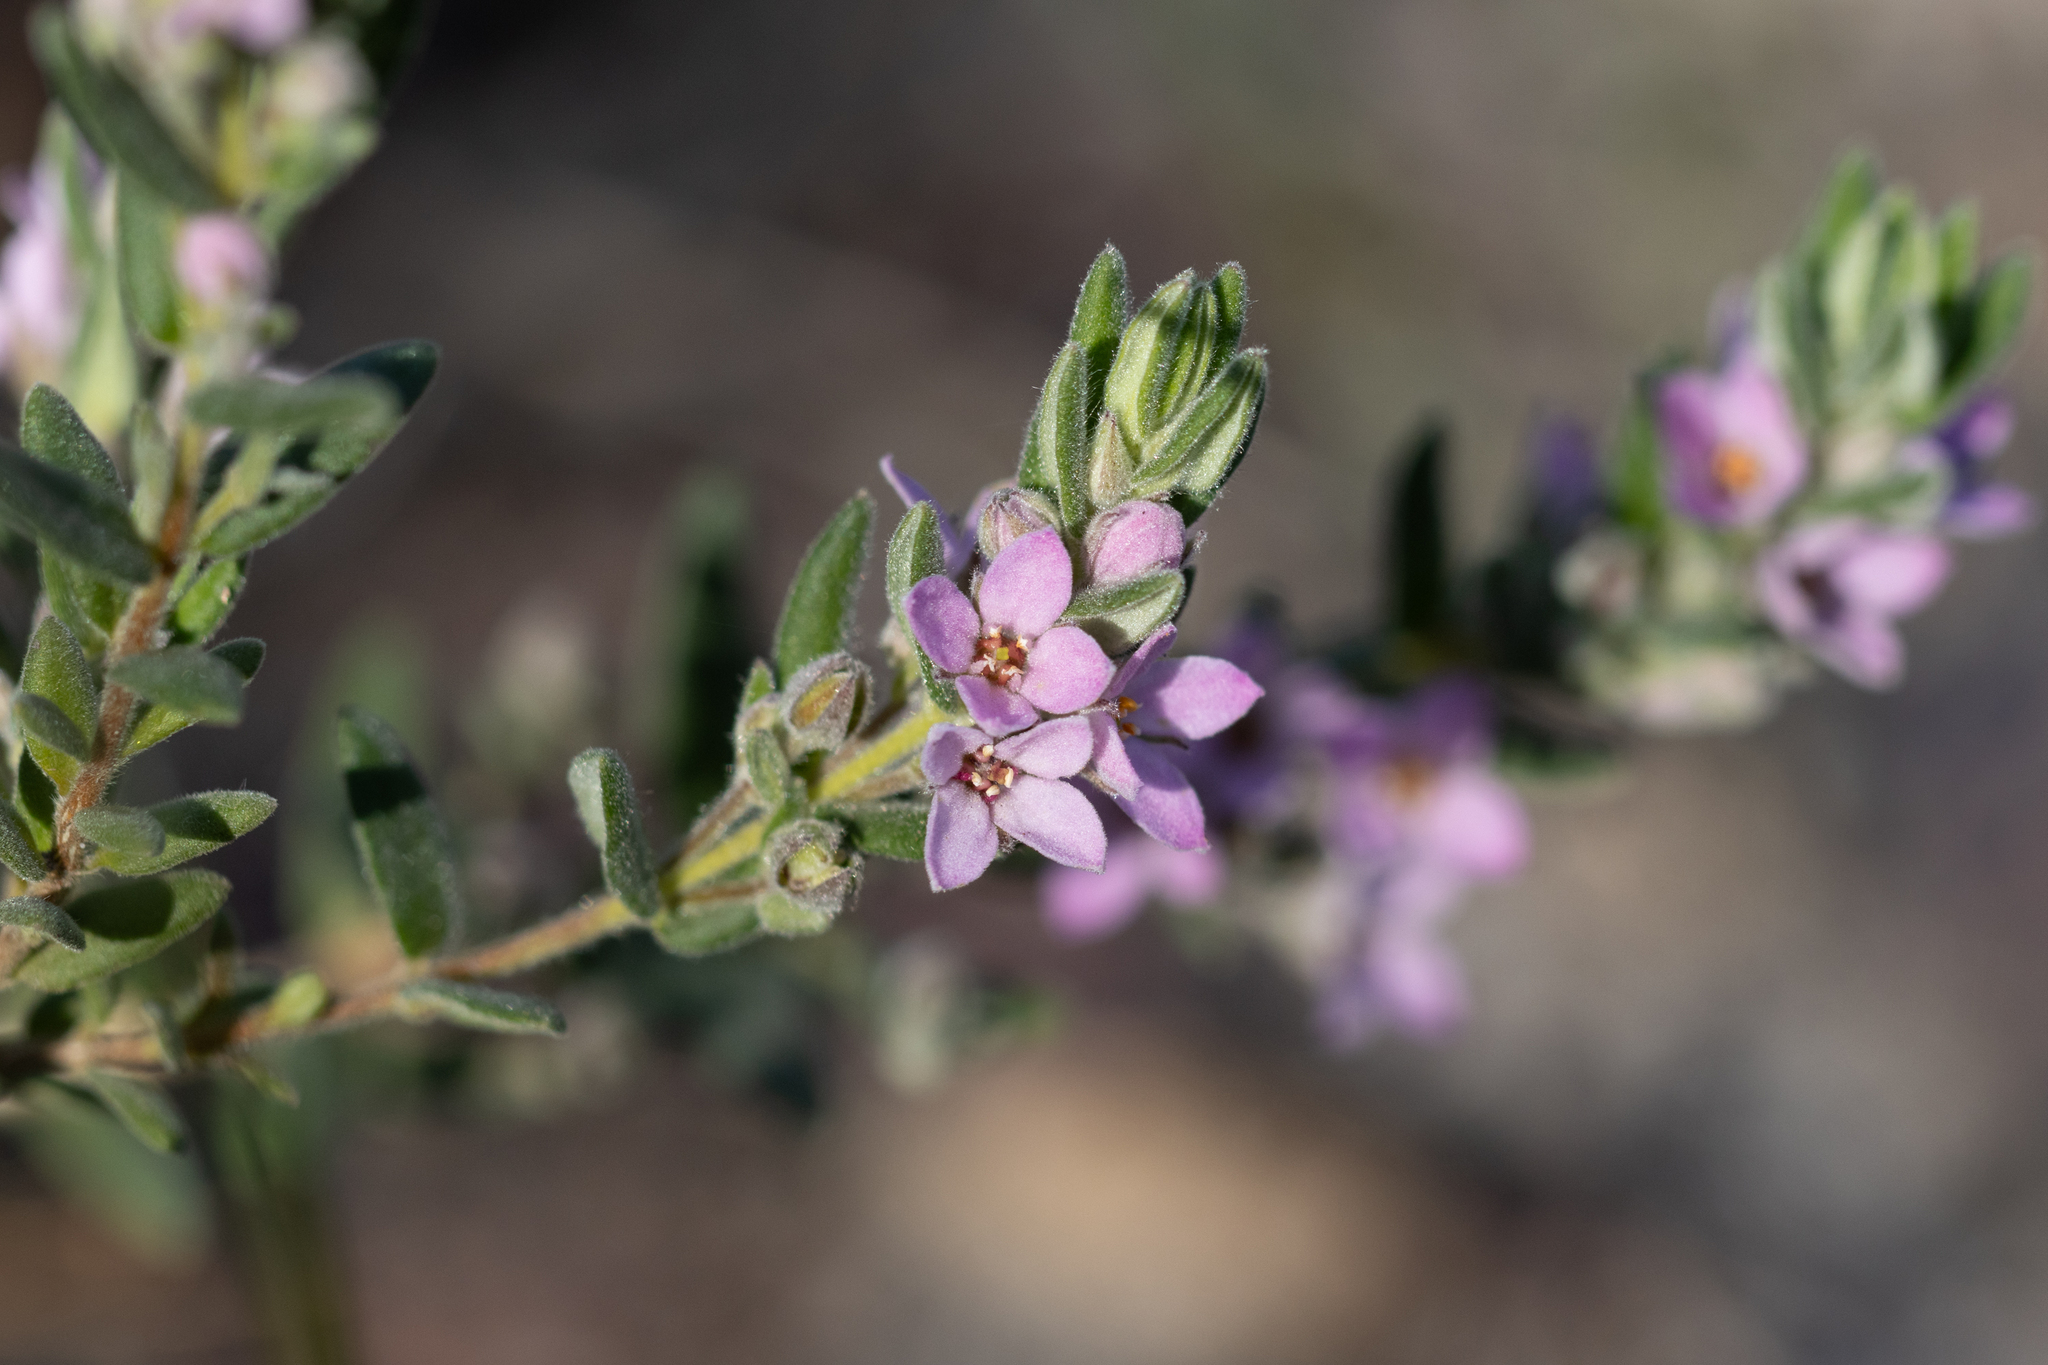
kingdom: Plantae
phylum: Tracheophyta
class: Magnoliopsida
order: Sapindales
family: Rutaceae
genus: Zieria
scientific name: Zieria veronicea
